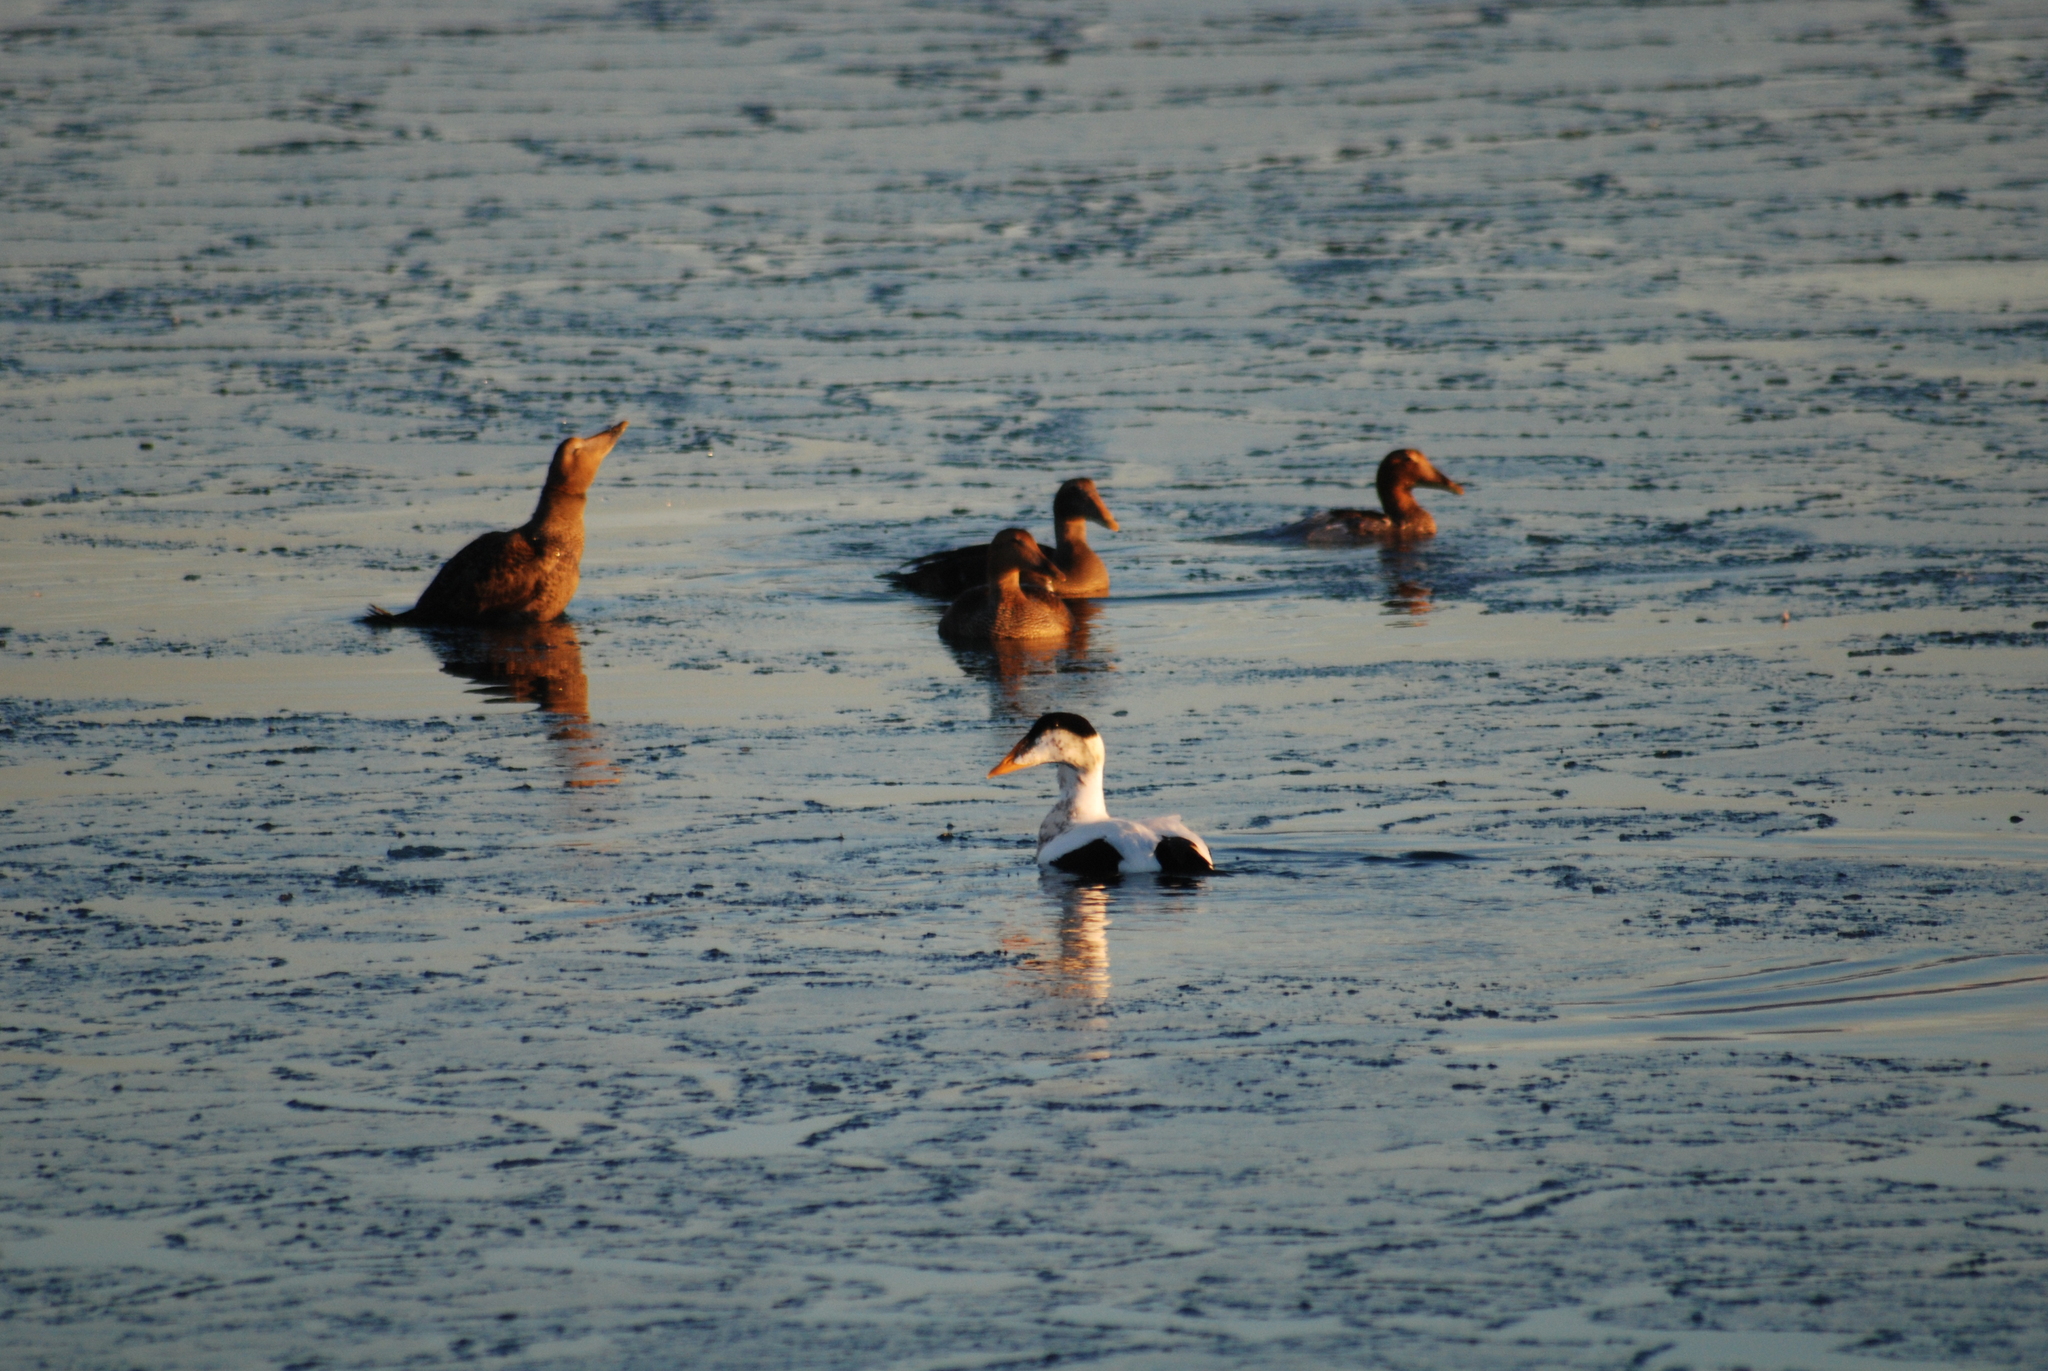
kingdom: Animalia
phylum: Chordata
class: Aves
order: Anseriformes
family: Anatidae
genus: Somateria
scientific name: Somateria mollissima
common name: Common eider
